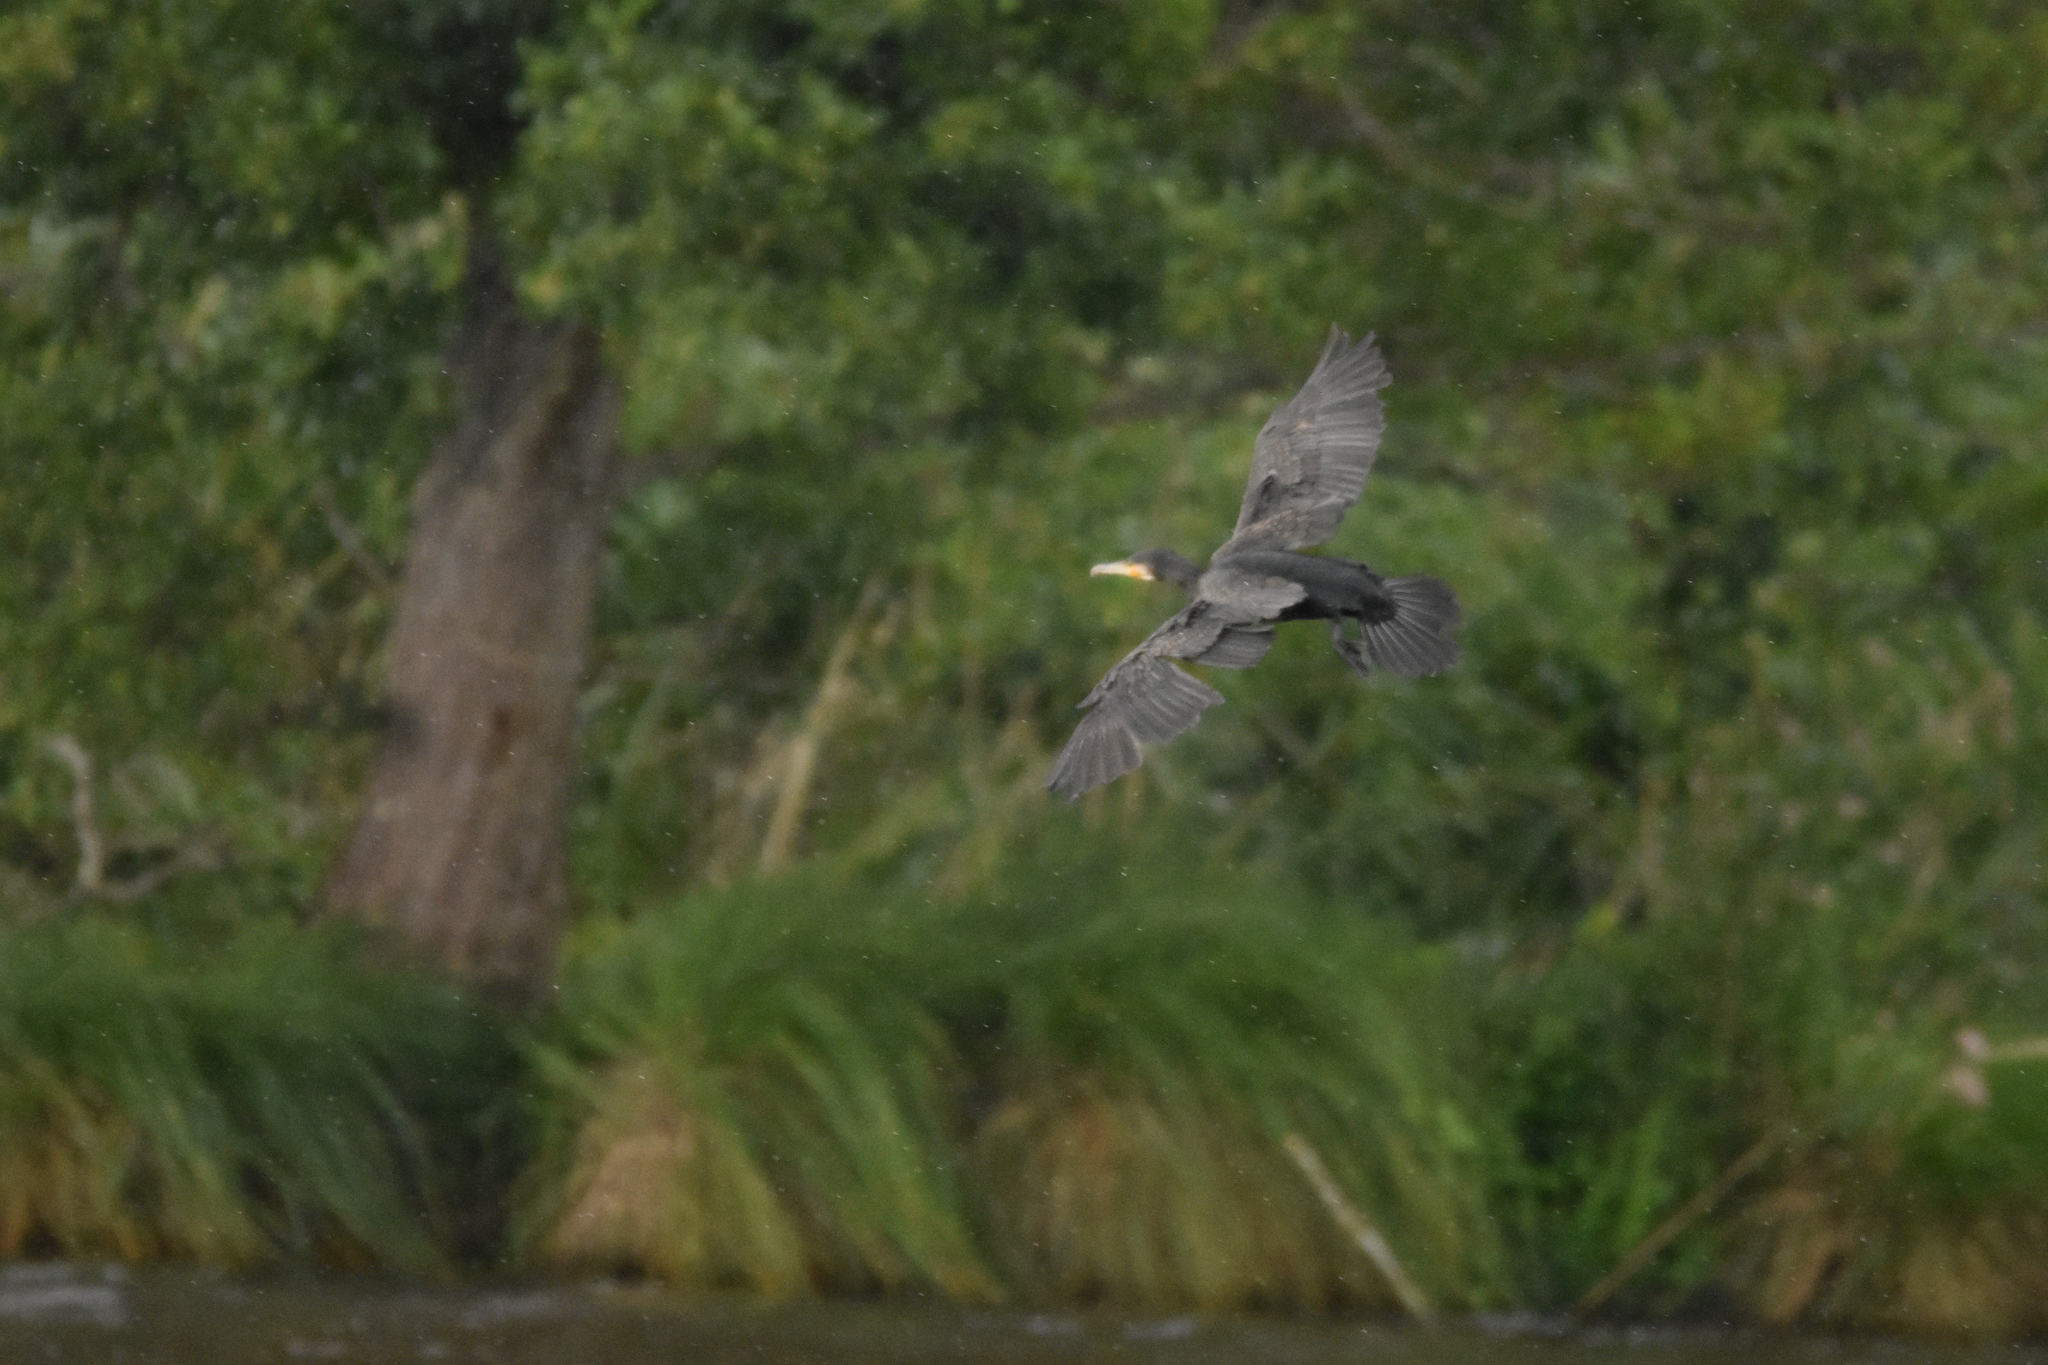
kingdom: Animalia
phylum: Chordata
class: Aves
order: Suliformes
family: Phalacrocoracidae
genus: Phalacrocorax
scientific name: Phalacrocorax carbo
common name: Great cormorant
